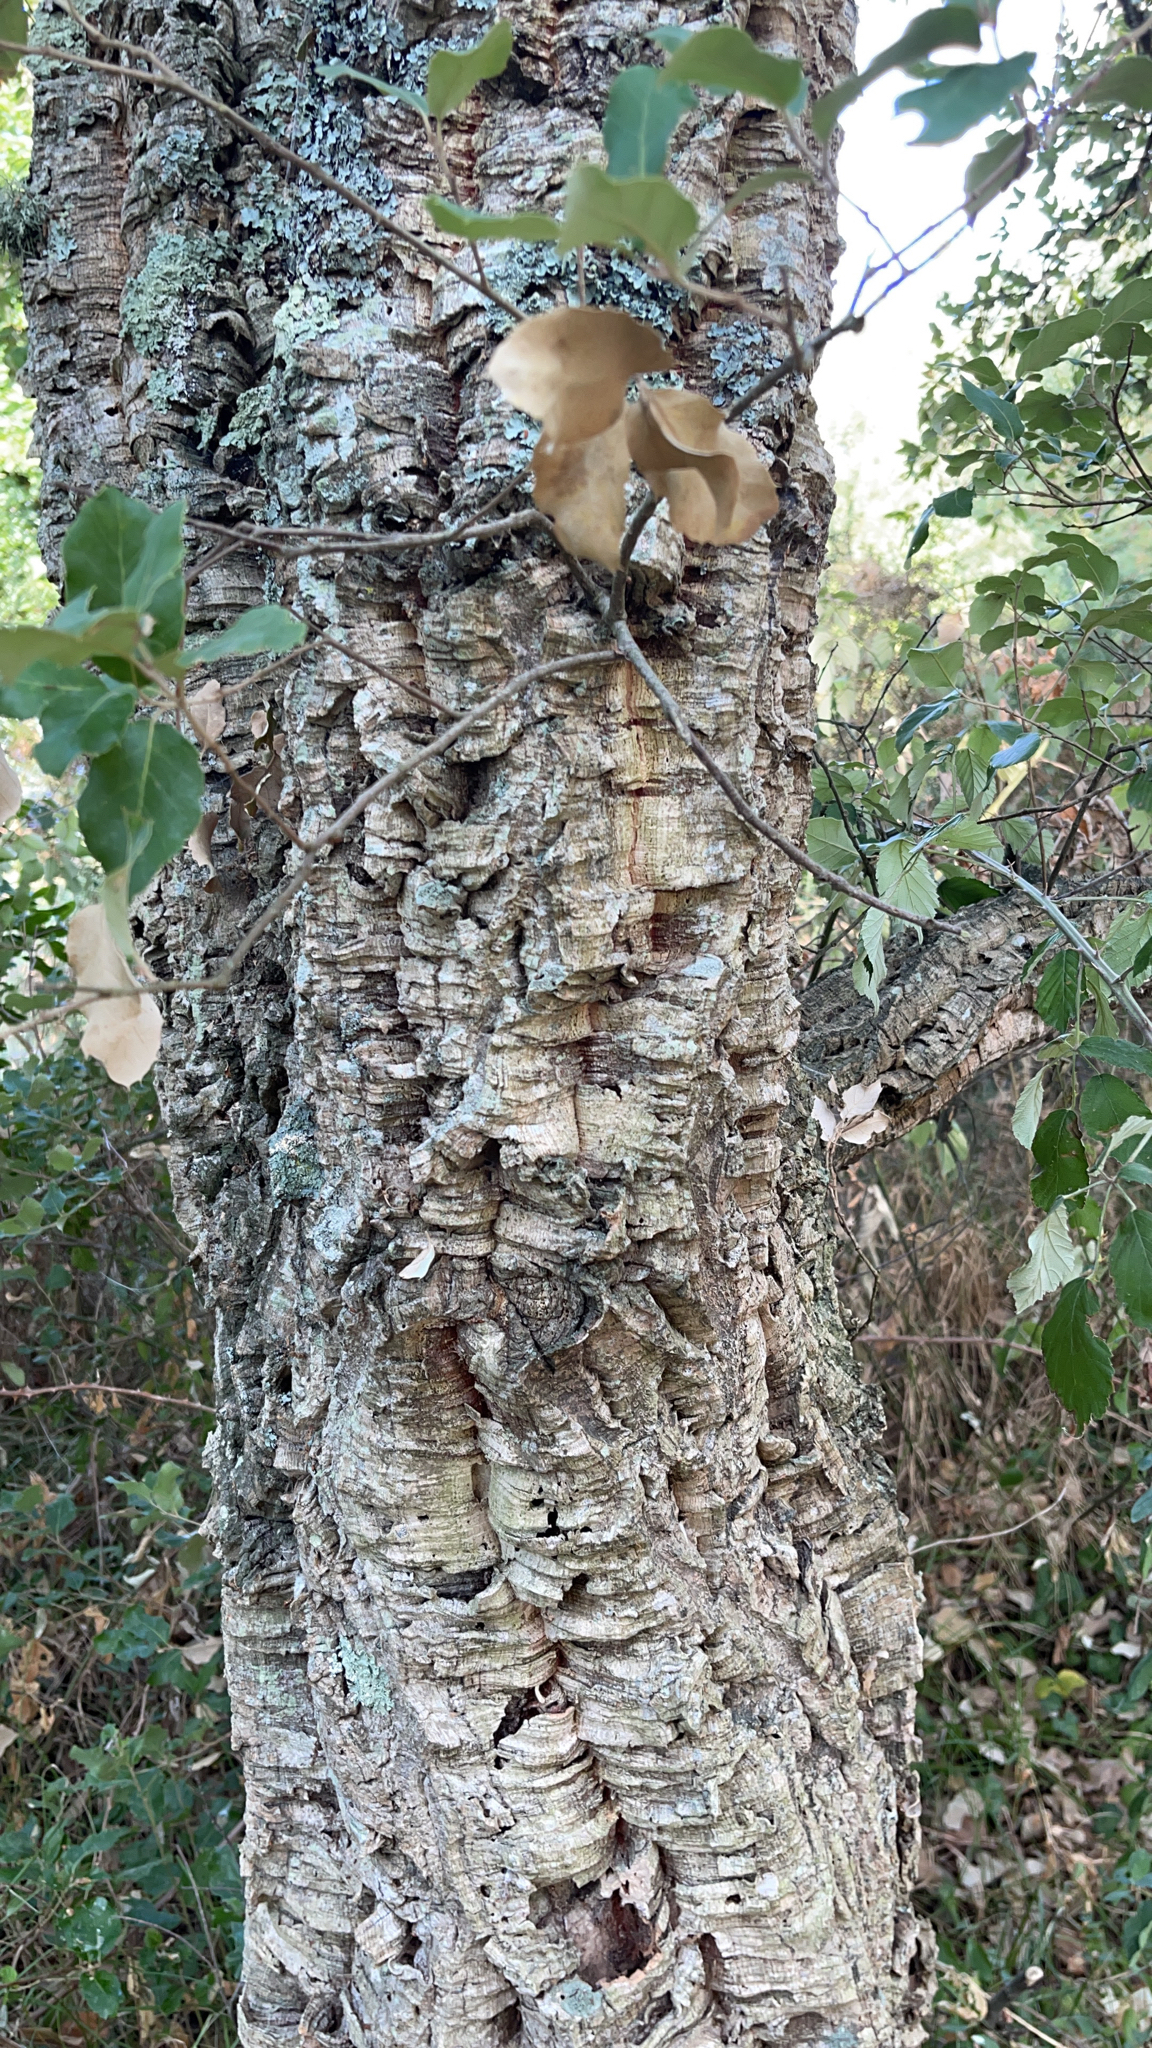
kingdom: Plantae
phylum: Tracheophyta
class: Magnoliopsida
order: Fagales
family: Fagaceae
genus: Quercus
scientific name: Quercus suber
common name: Cork oak
